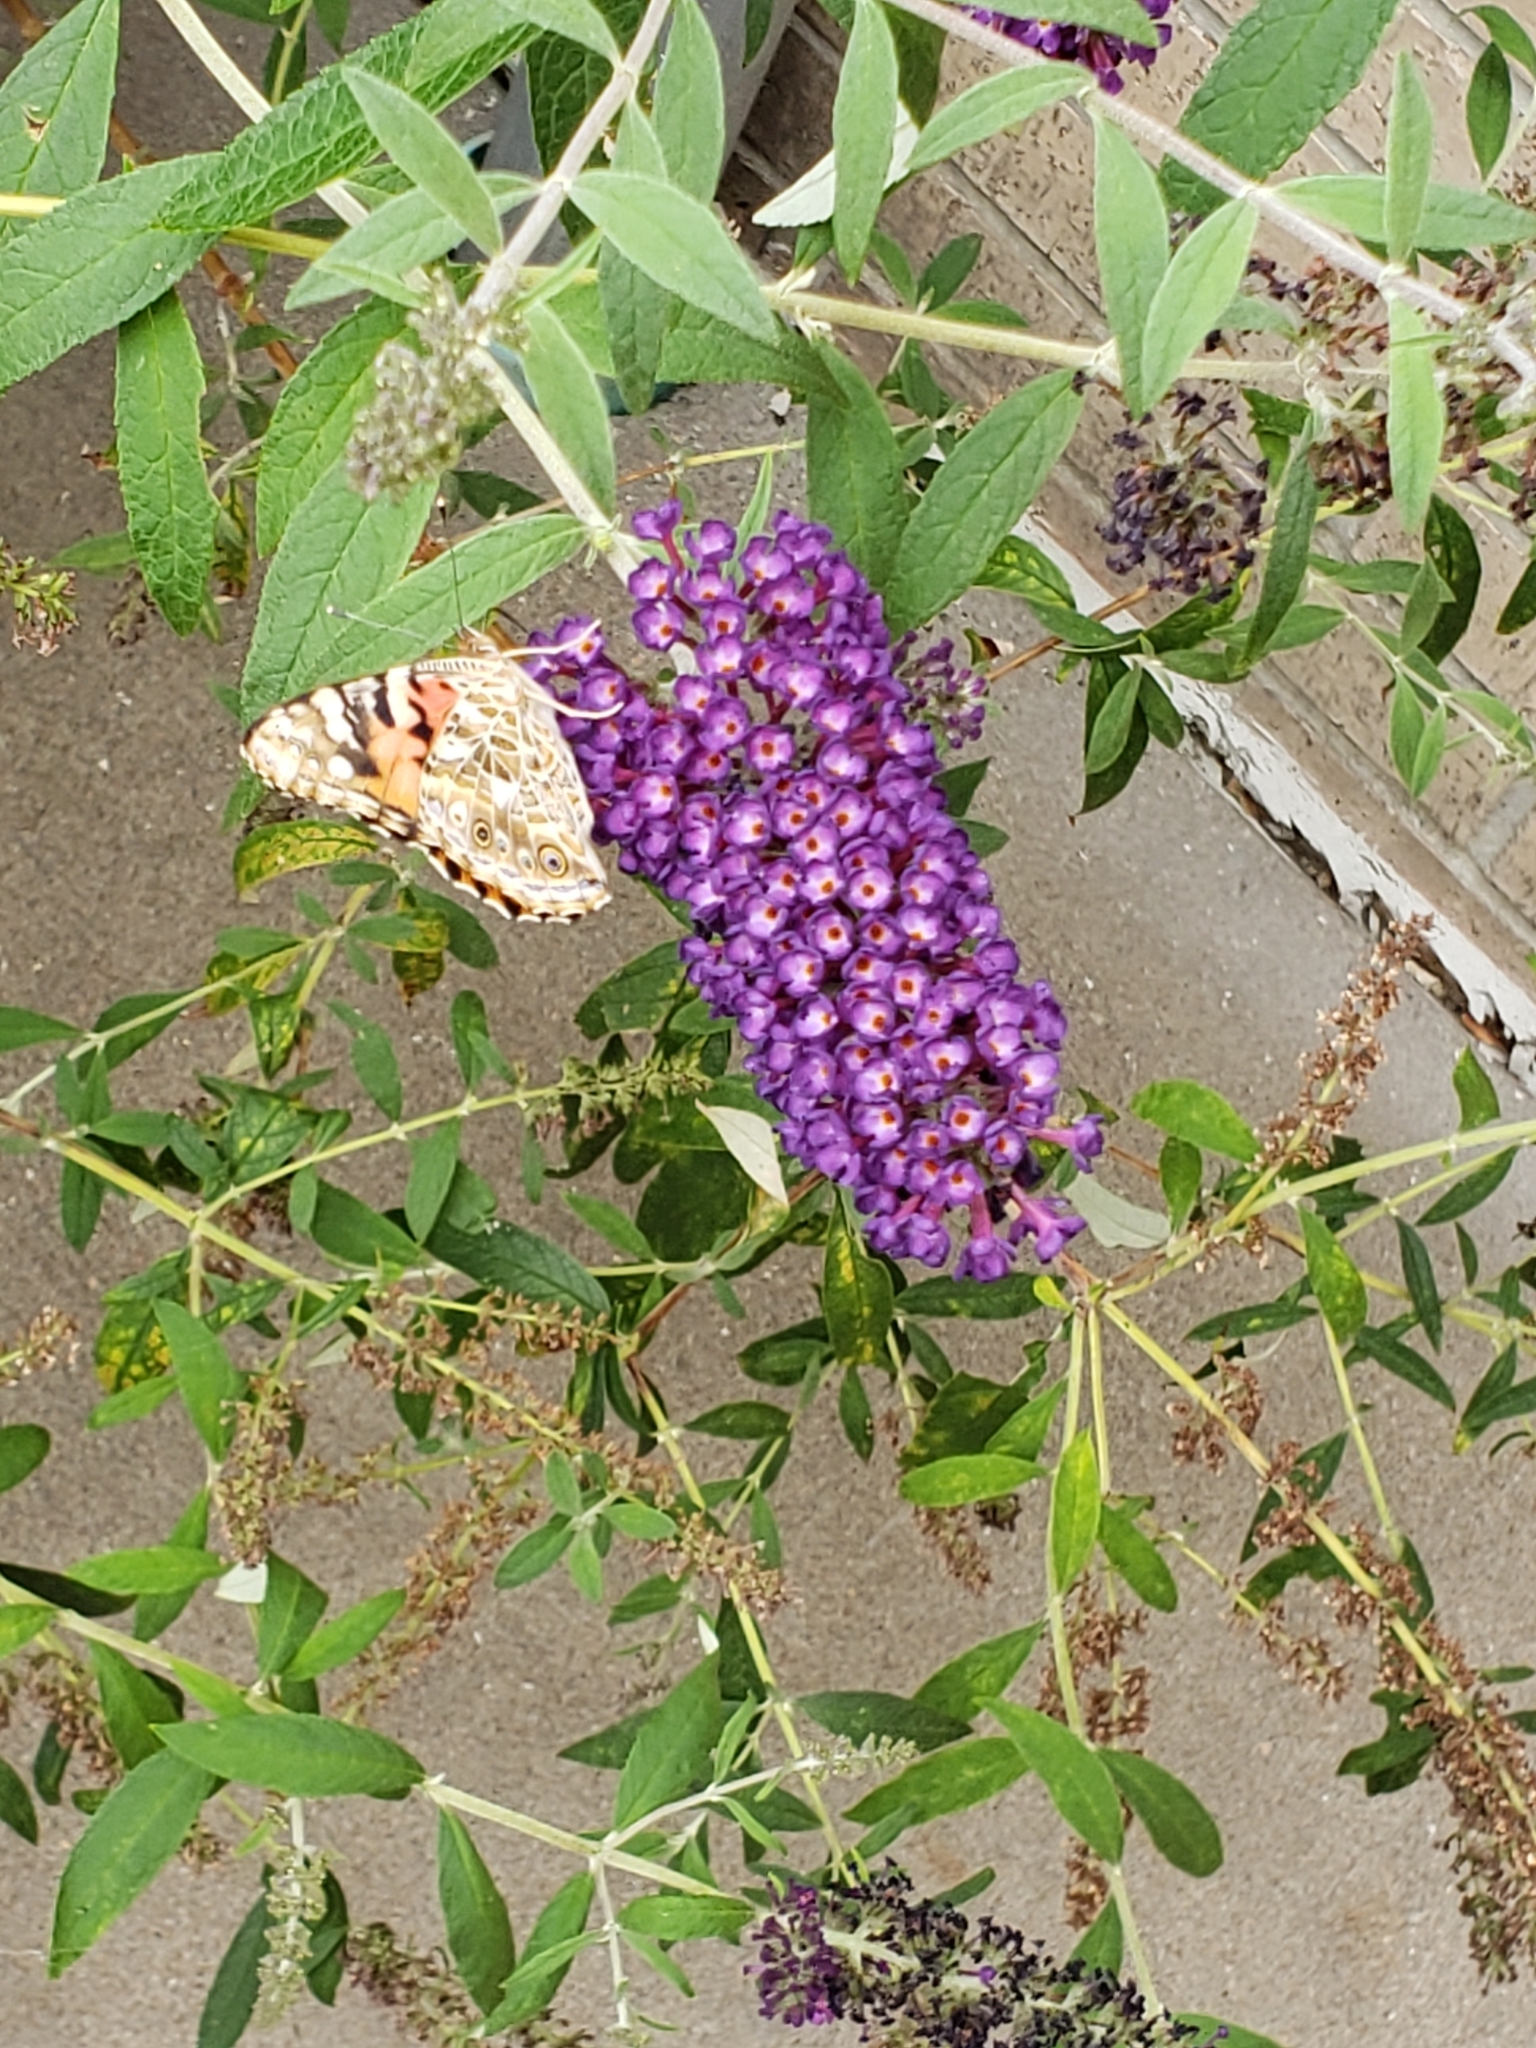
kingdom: Animalia
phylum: Arthropoda
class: Insecta
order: Lepidoptera
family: Nymphalidae
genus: Vanessa
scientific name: Vanessa cardui
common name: Painted lady
